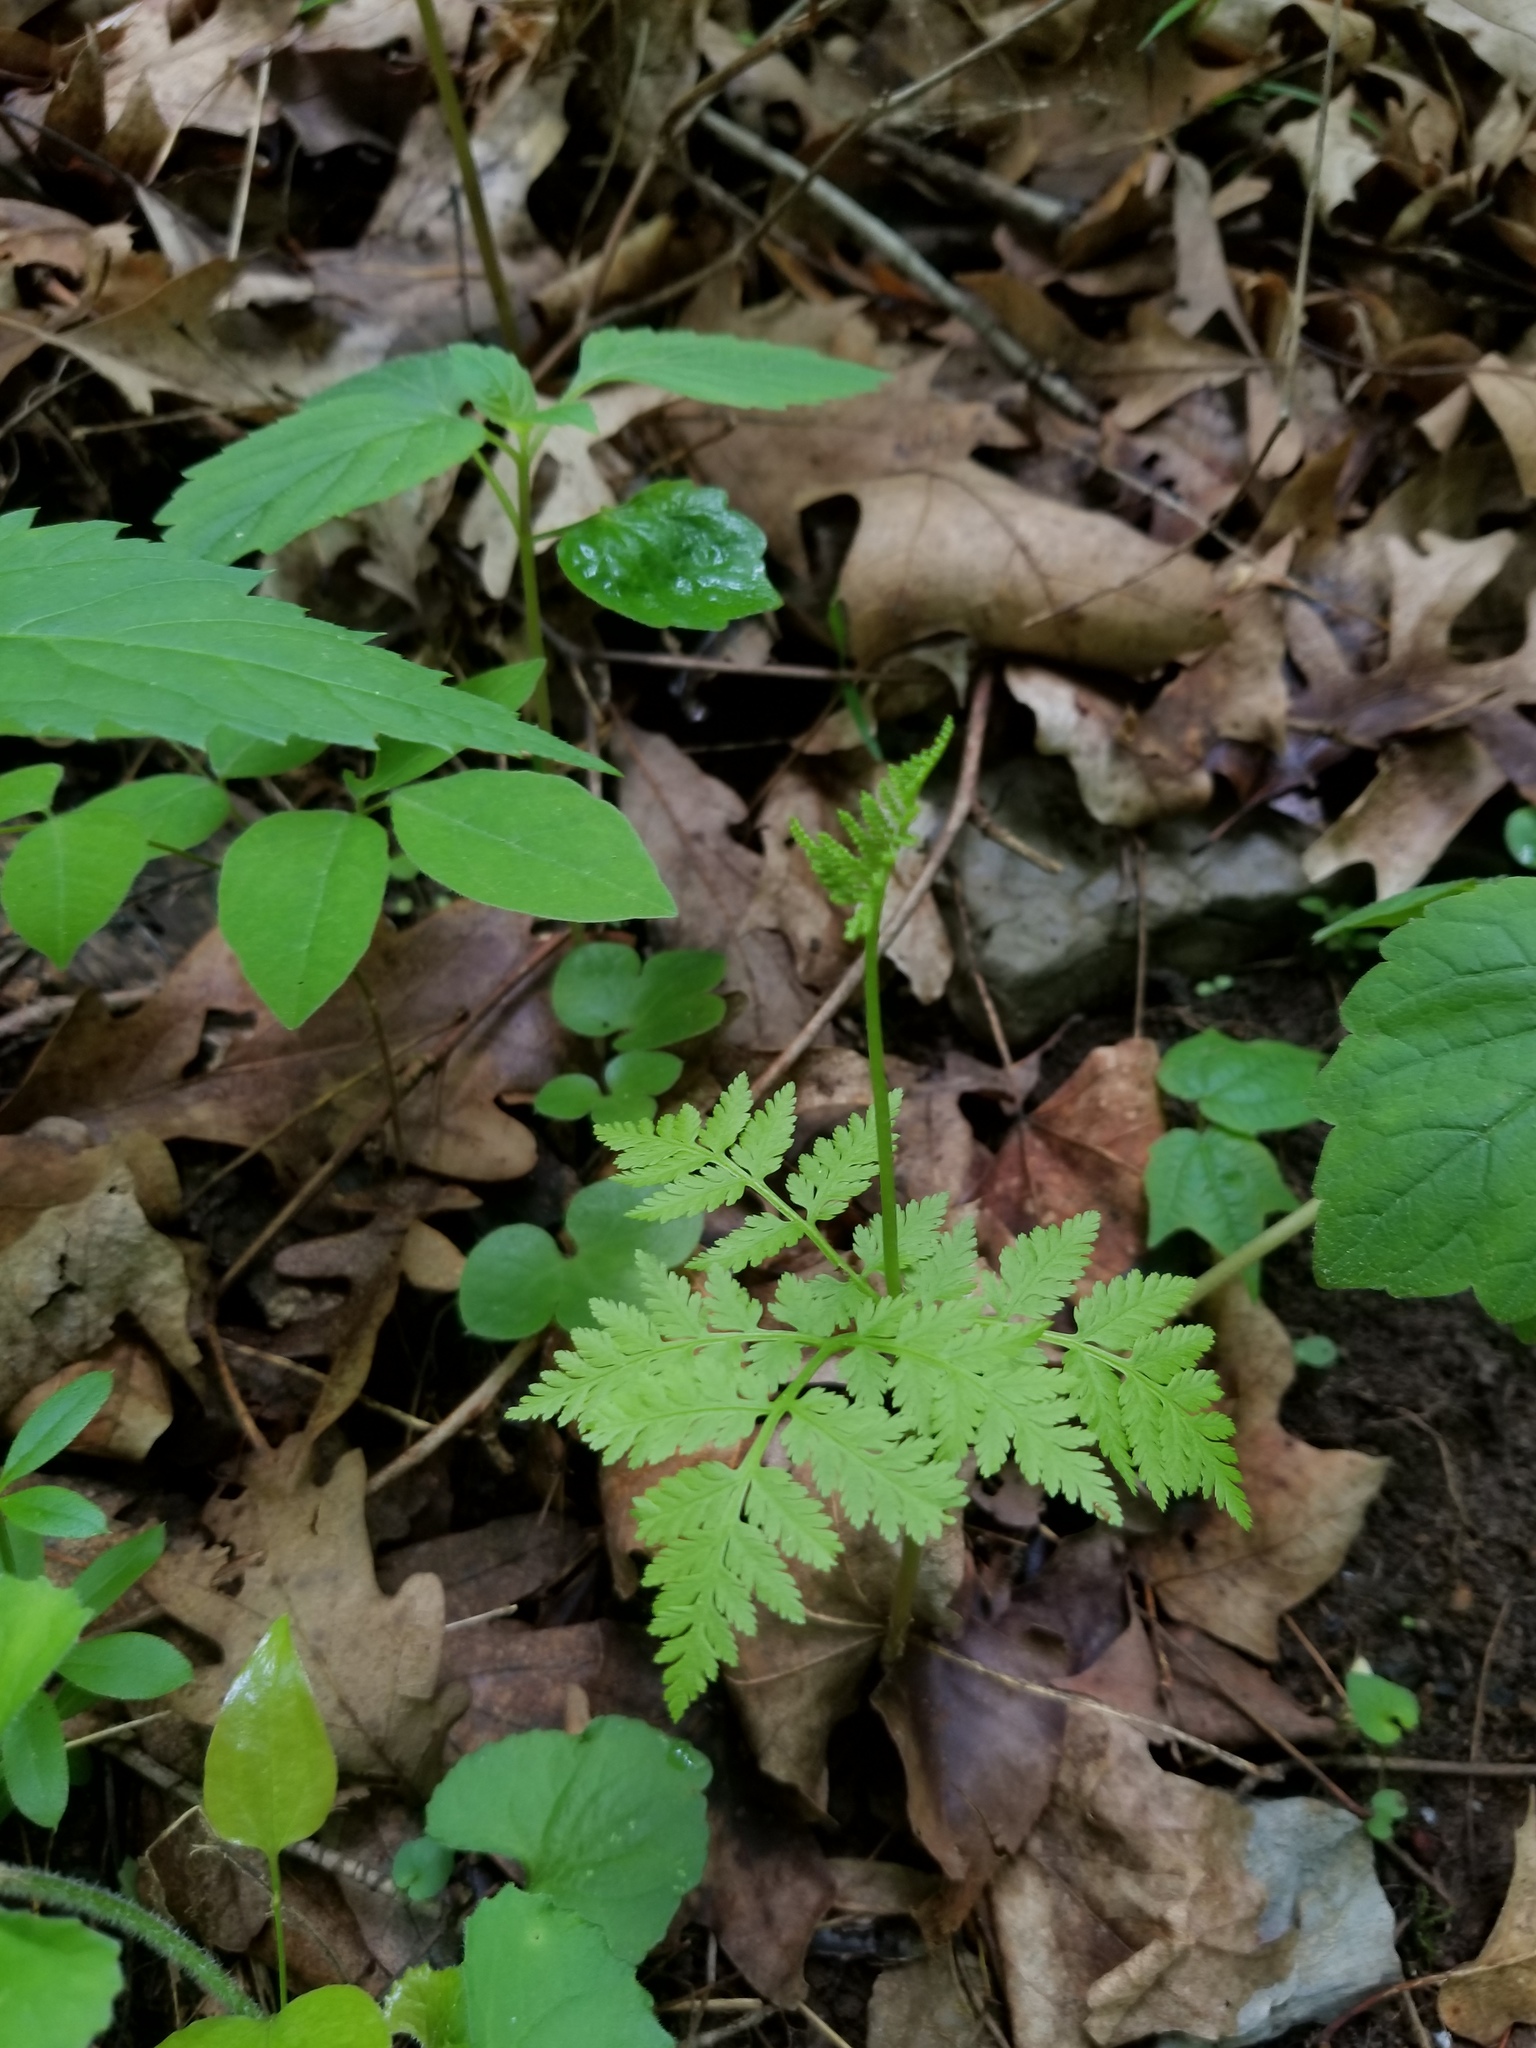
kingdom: Plantae
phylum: Tracheophyta
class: Polypodiopsida
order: Ophioglossales
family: Ophioglossaceae
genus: Botrypus
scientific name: Botrypus virginianus
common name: Common grapefern
